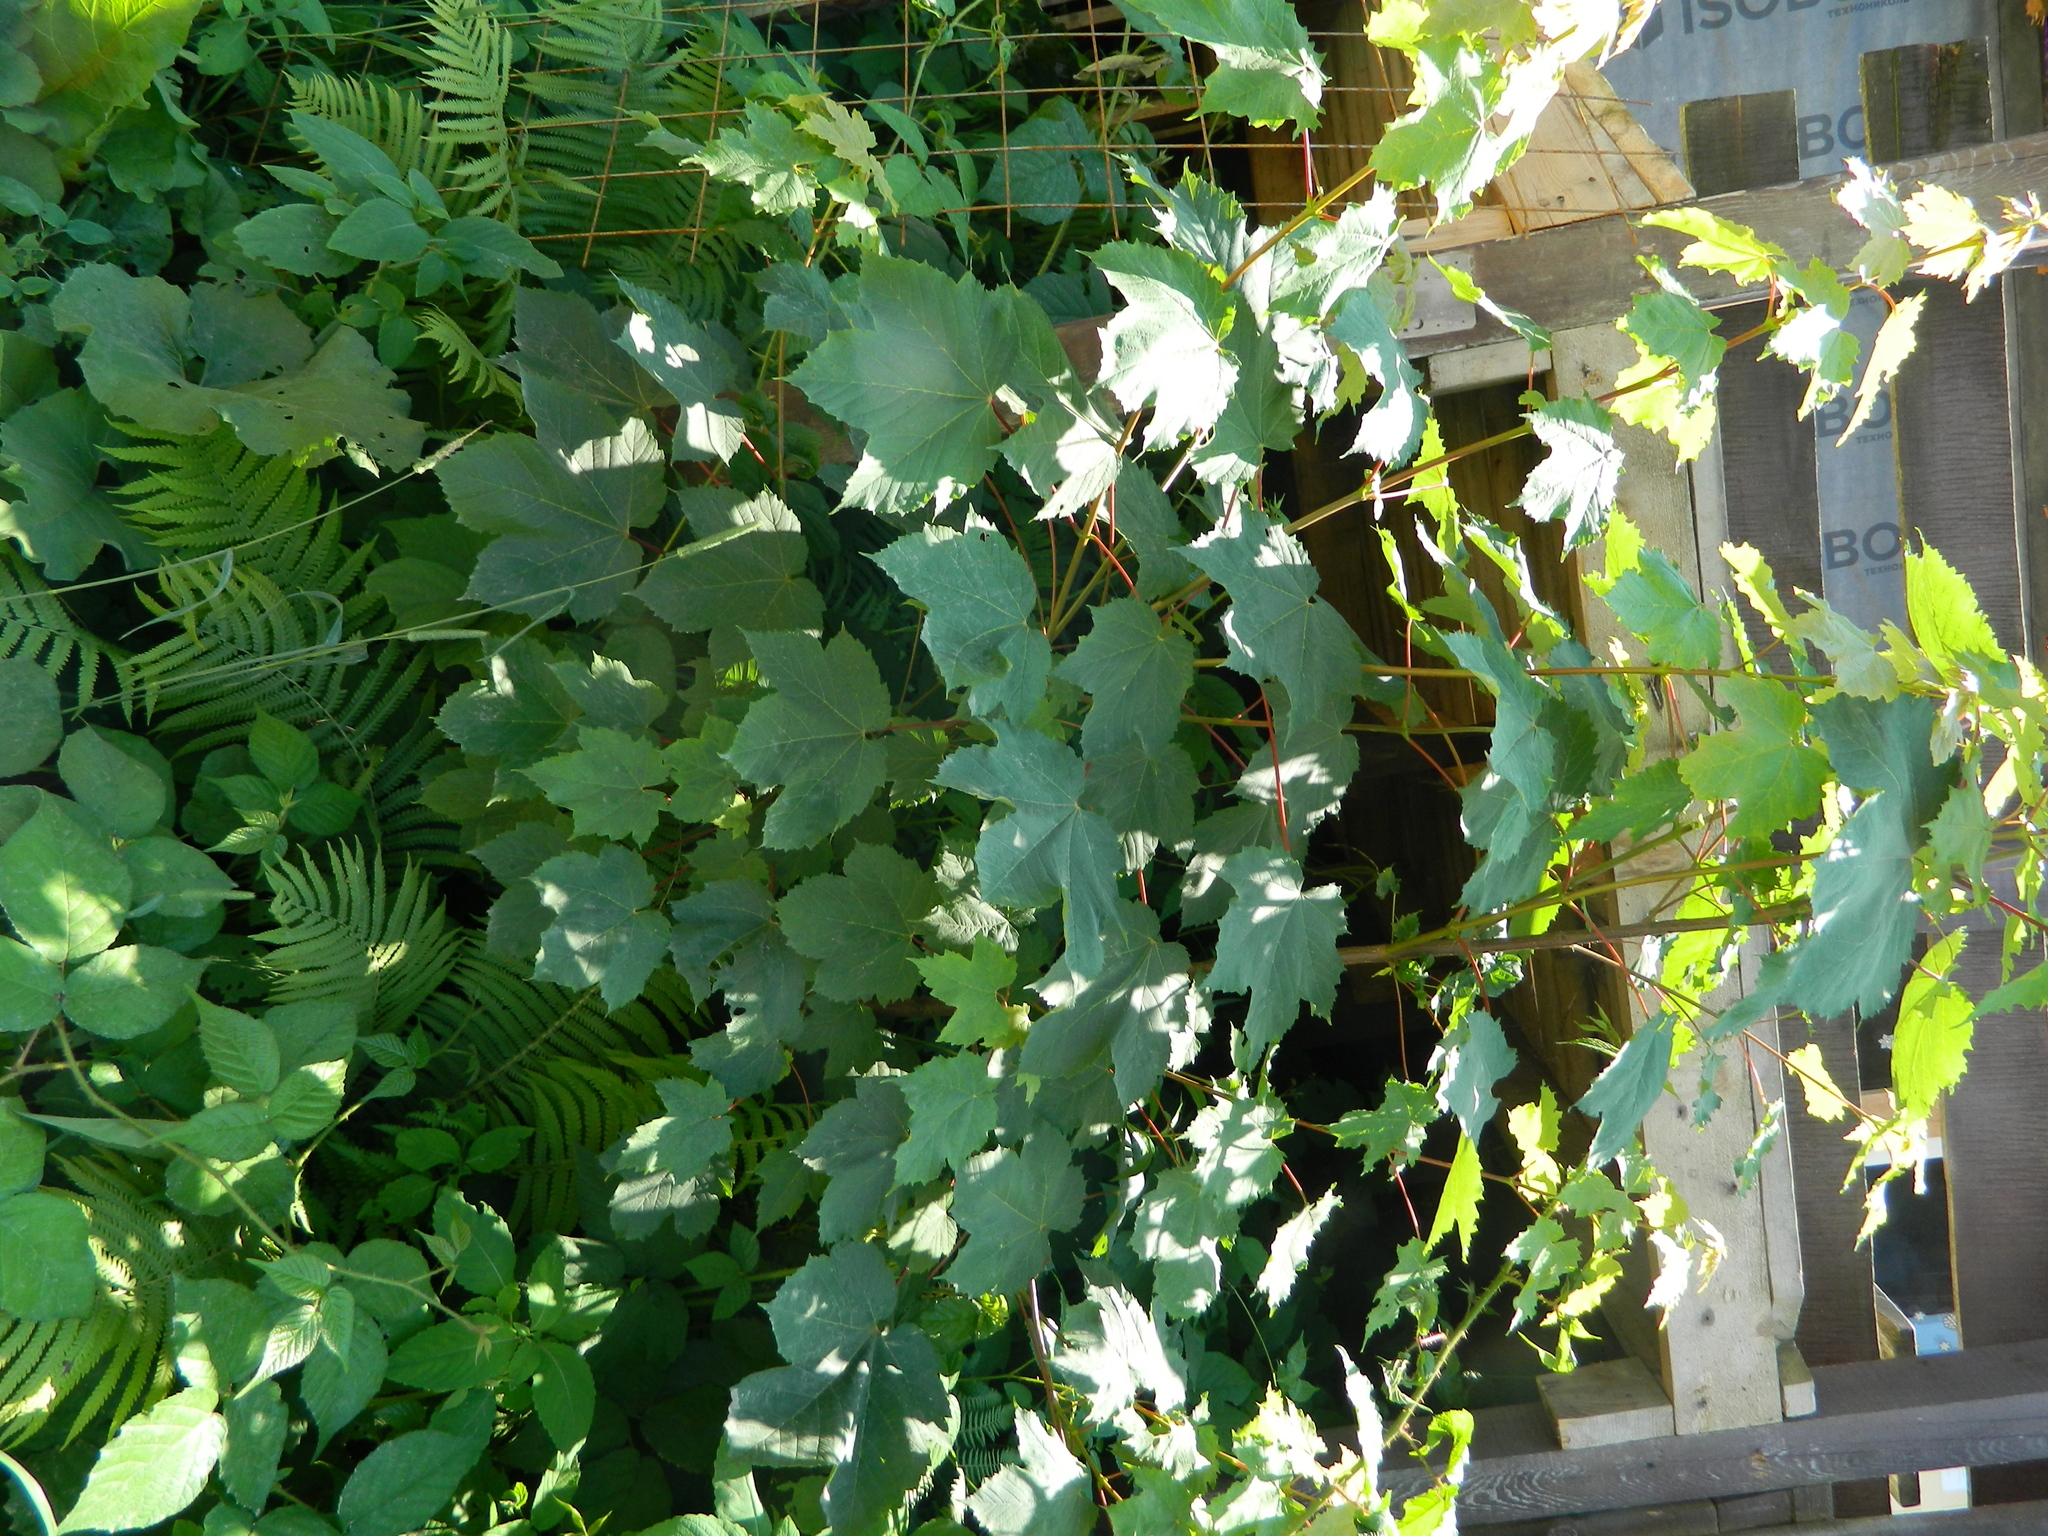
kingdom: Plantae
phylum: Tracheophyta
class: Magnoliopsida
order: Sapindales
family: Sapindaceae
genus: Acer
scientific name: Acer pseudoplatanus
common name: Sycamore
